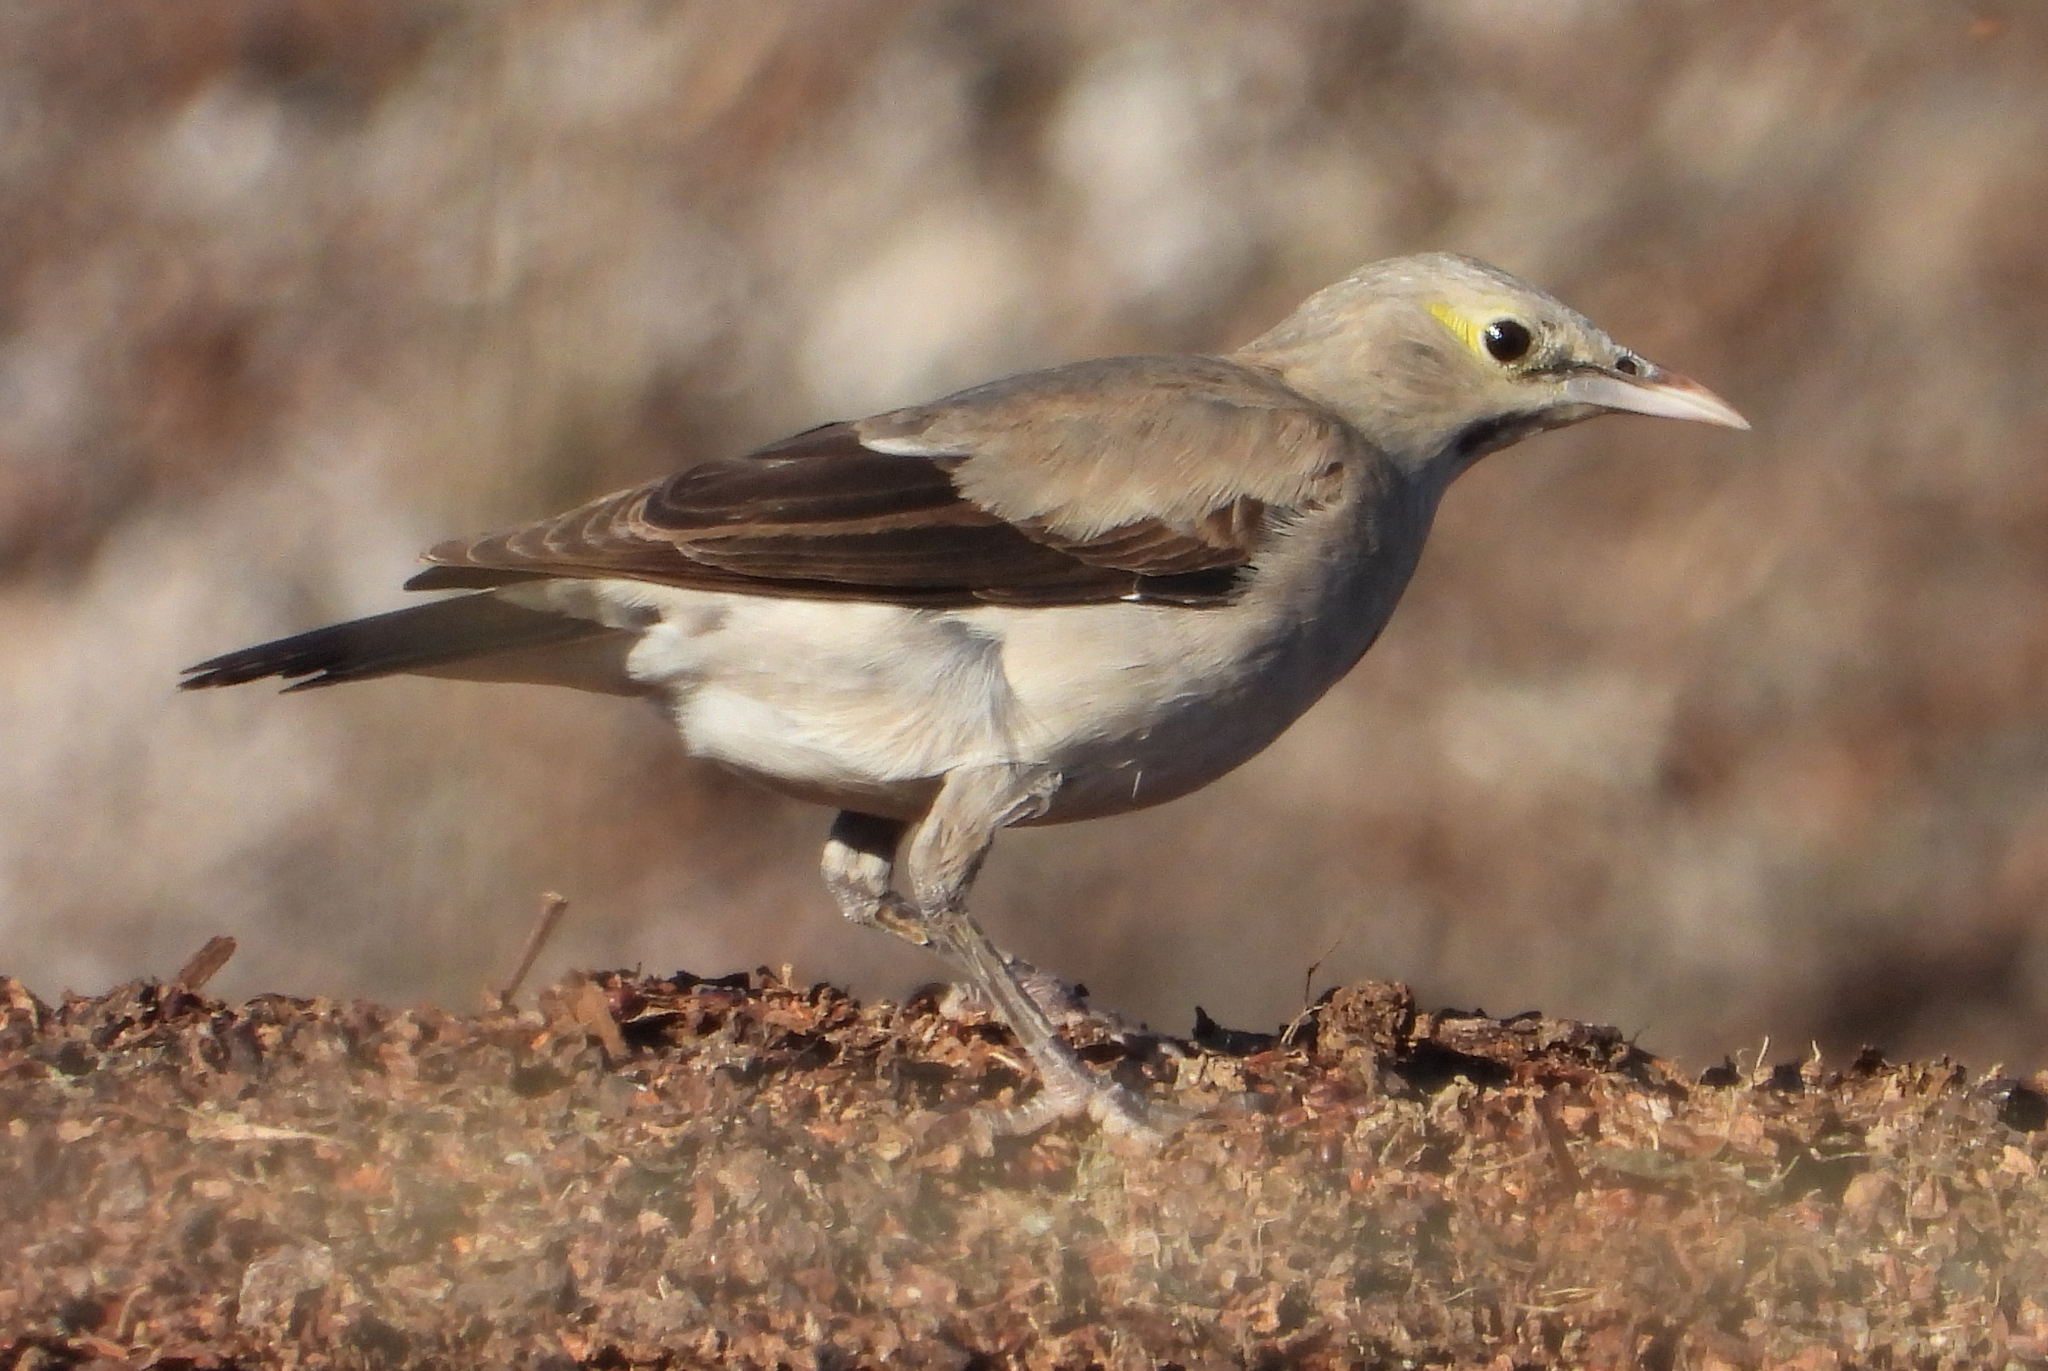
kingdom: Animalia
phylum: Chordata
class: Aves
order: Passeriformes
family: Sturnidae
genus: Creatophora
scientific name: Creatophora cinerea
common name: Wattled starling
